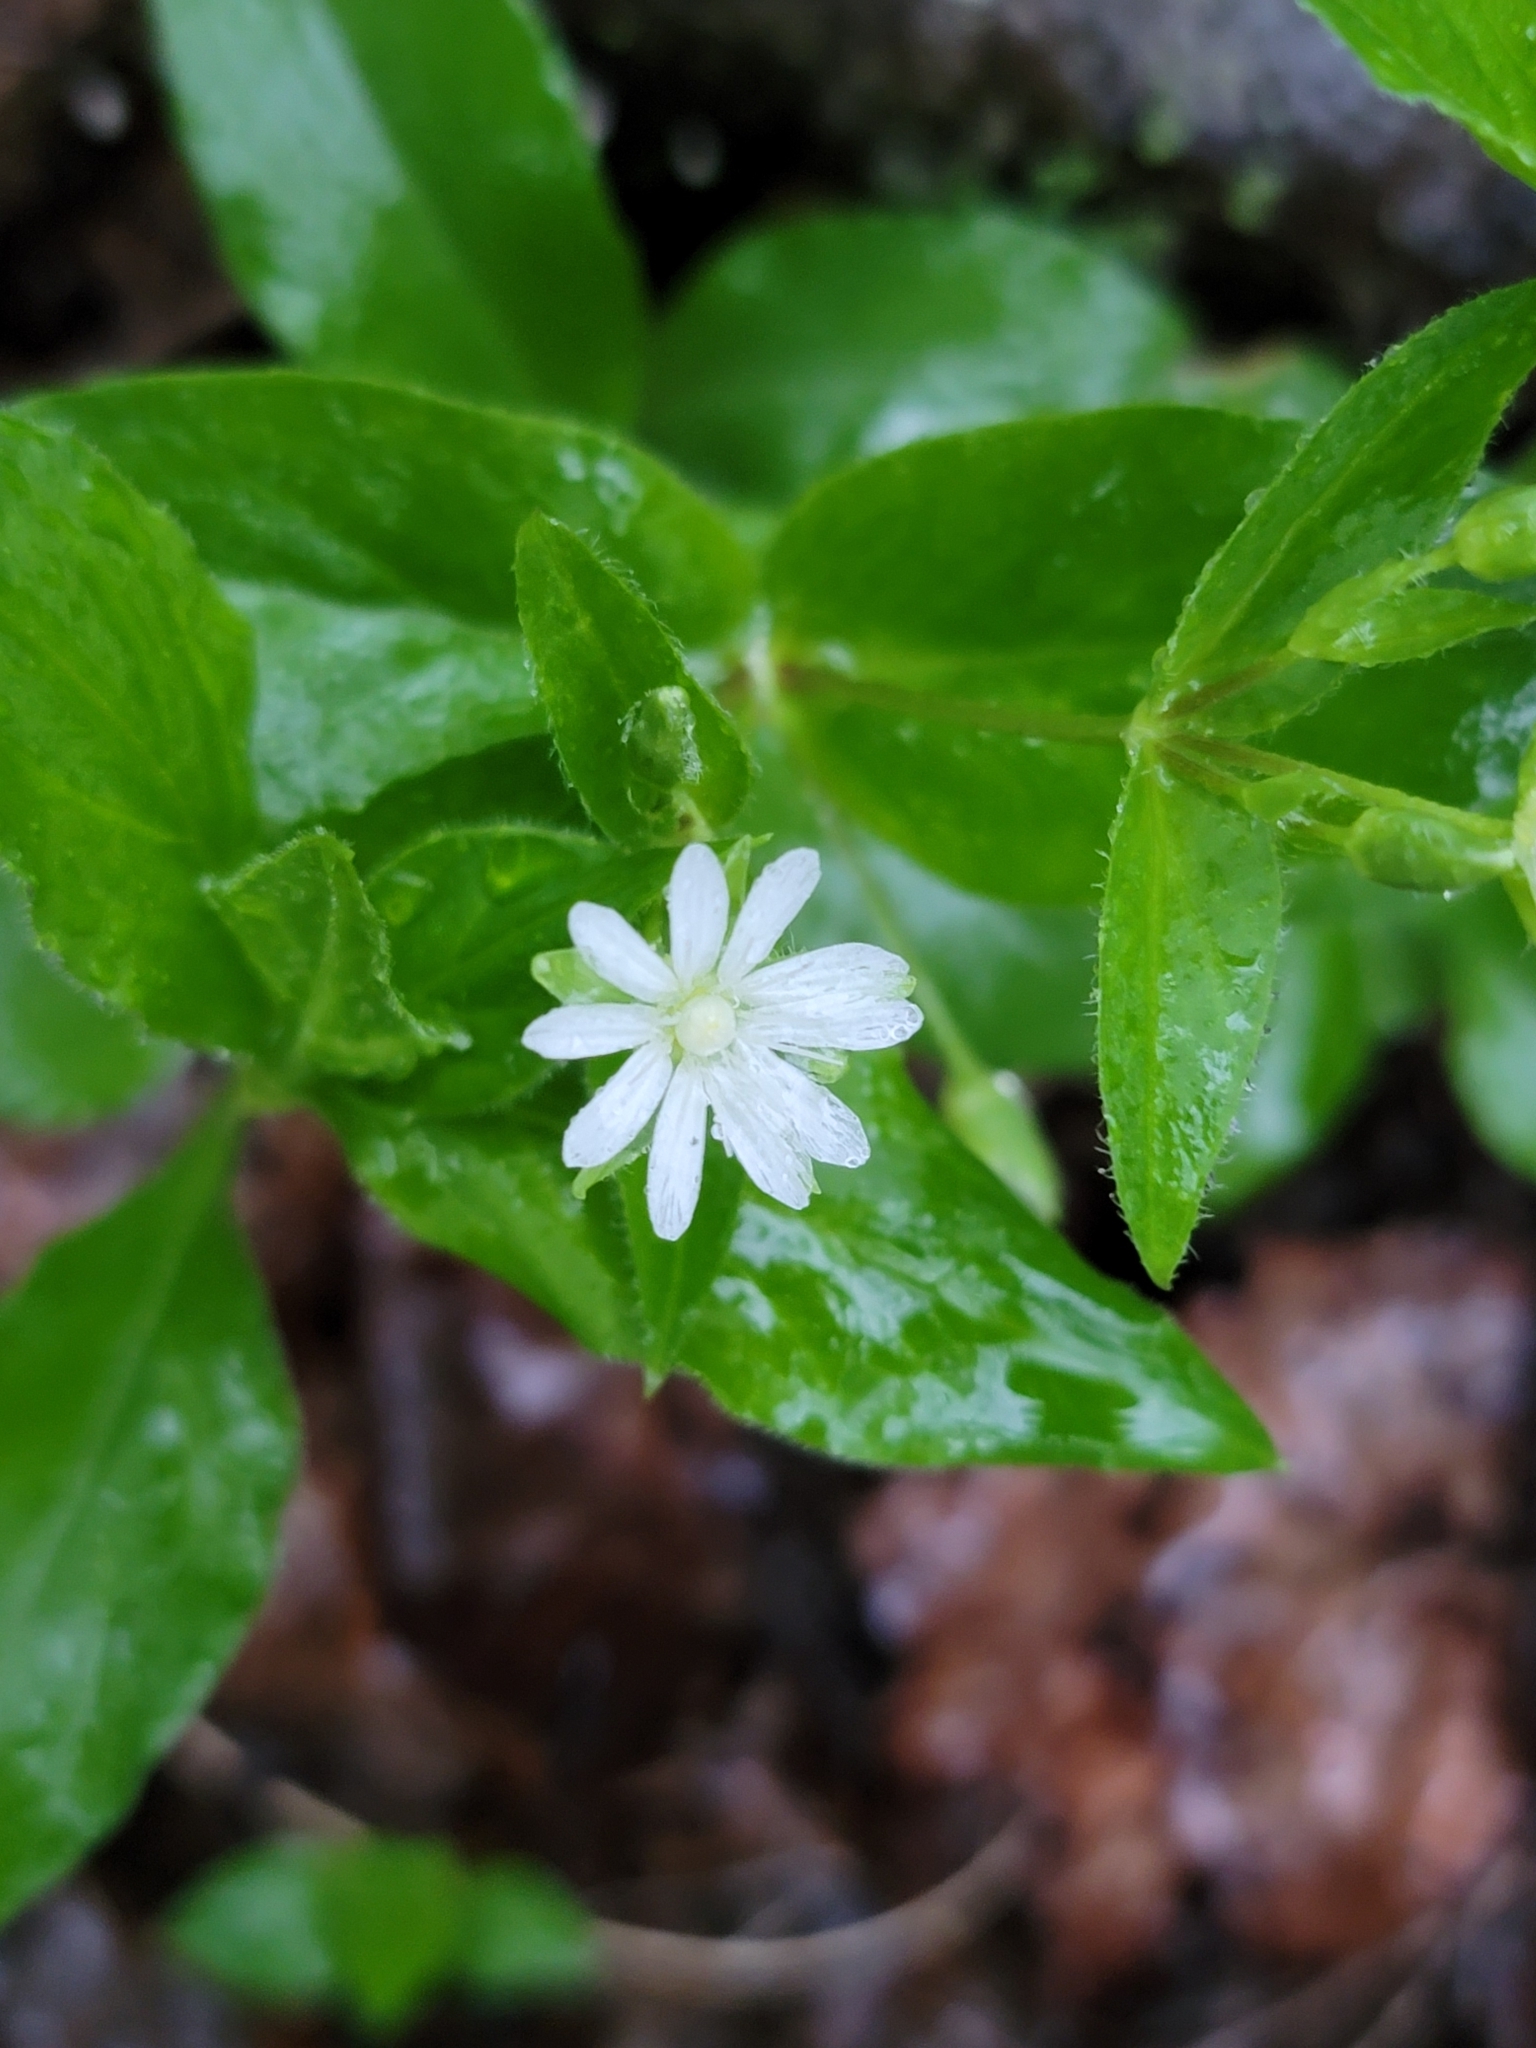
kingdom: Plantae
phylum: Tracheophyta
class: Magnoliopsida
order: Caryophyllales
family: Caryophyllaceae
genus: Stellaria
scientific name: Stellaria corei
